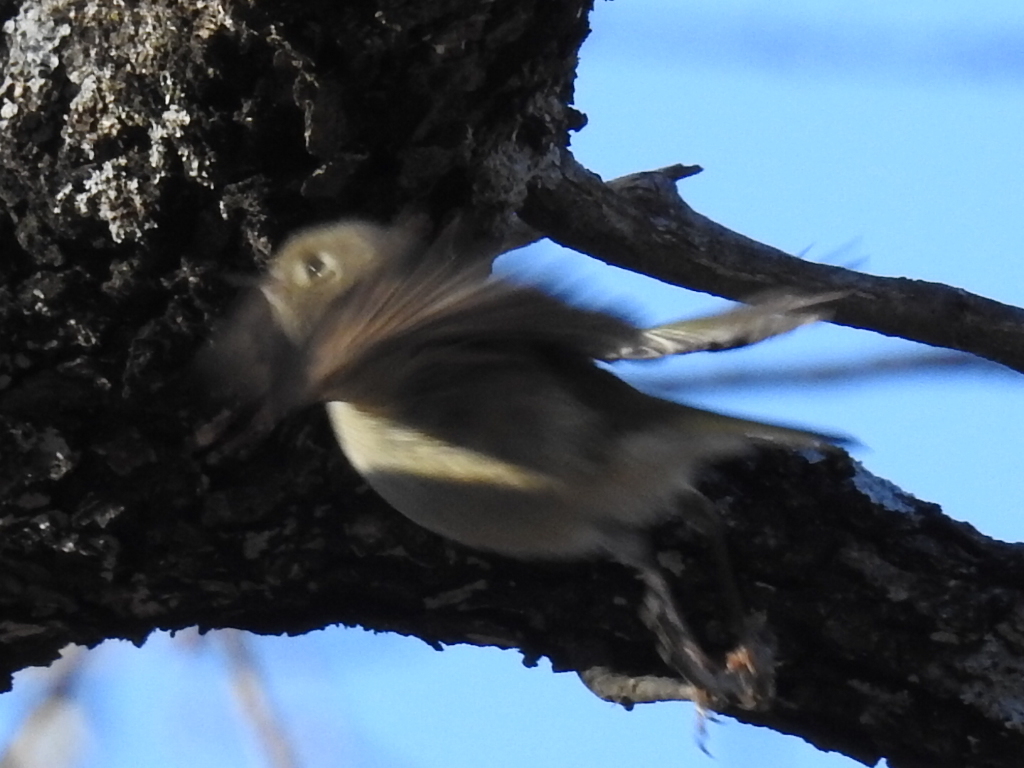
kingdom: Animalia
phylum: Chordata
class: Aves
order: Passeriformes
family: Regulidae
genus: Regulus
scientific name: Regulus calendula
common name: Ruby-crowned kinglet
